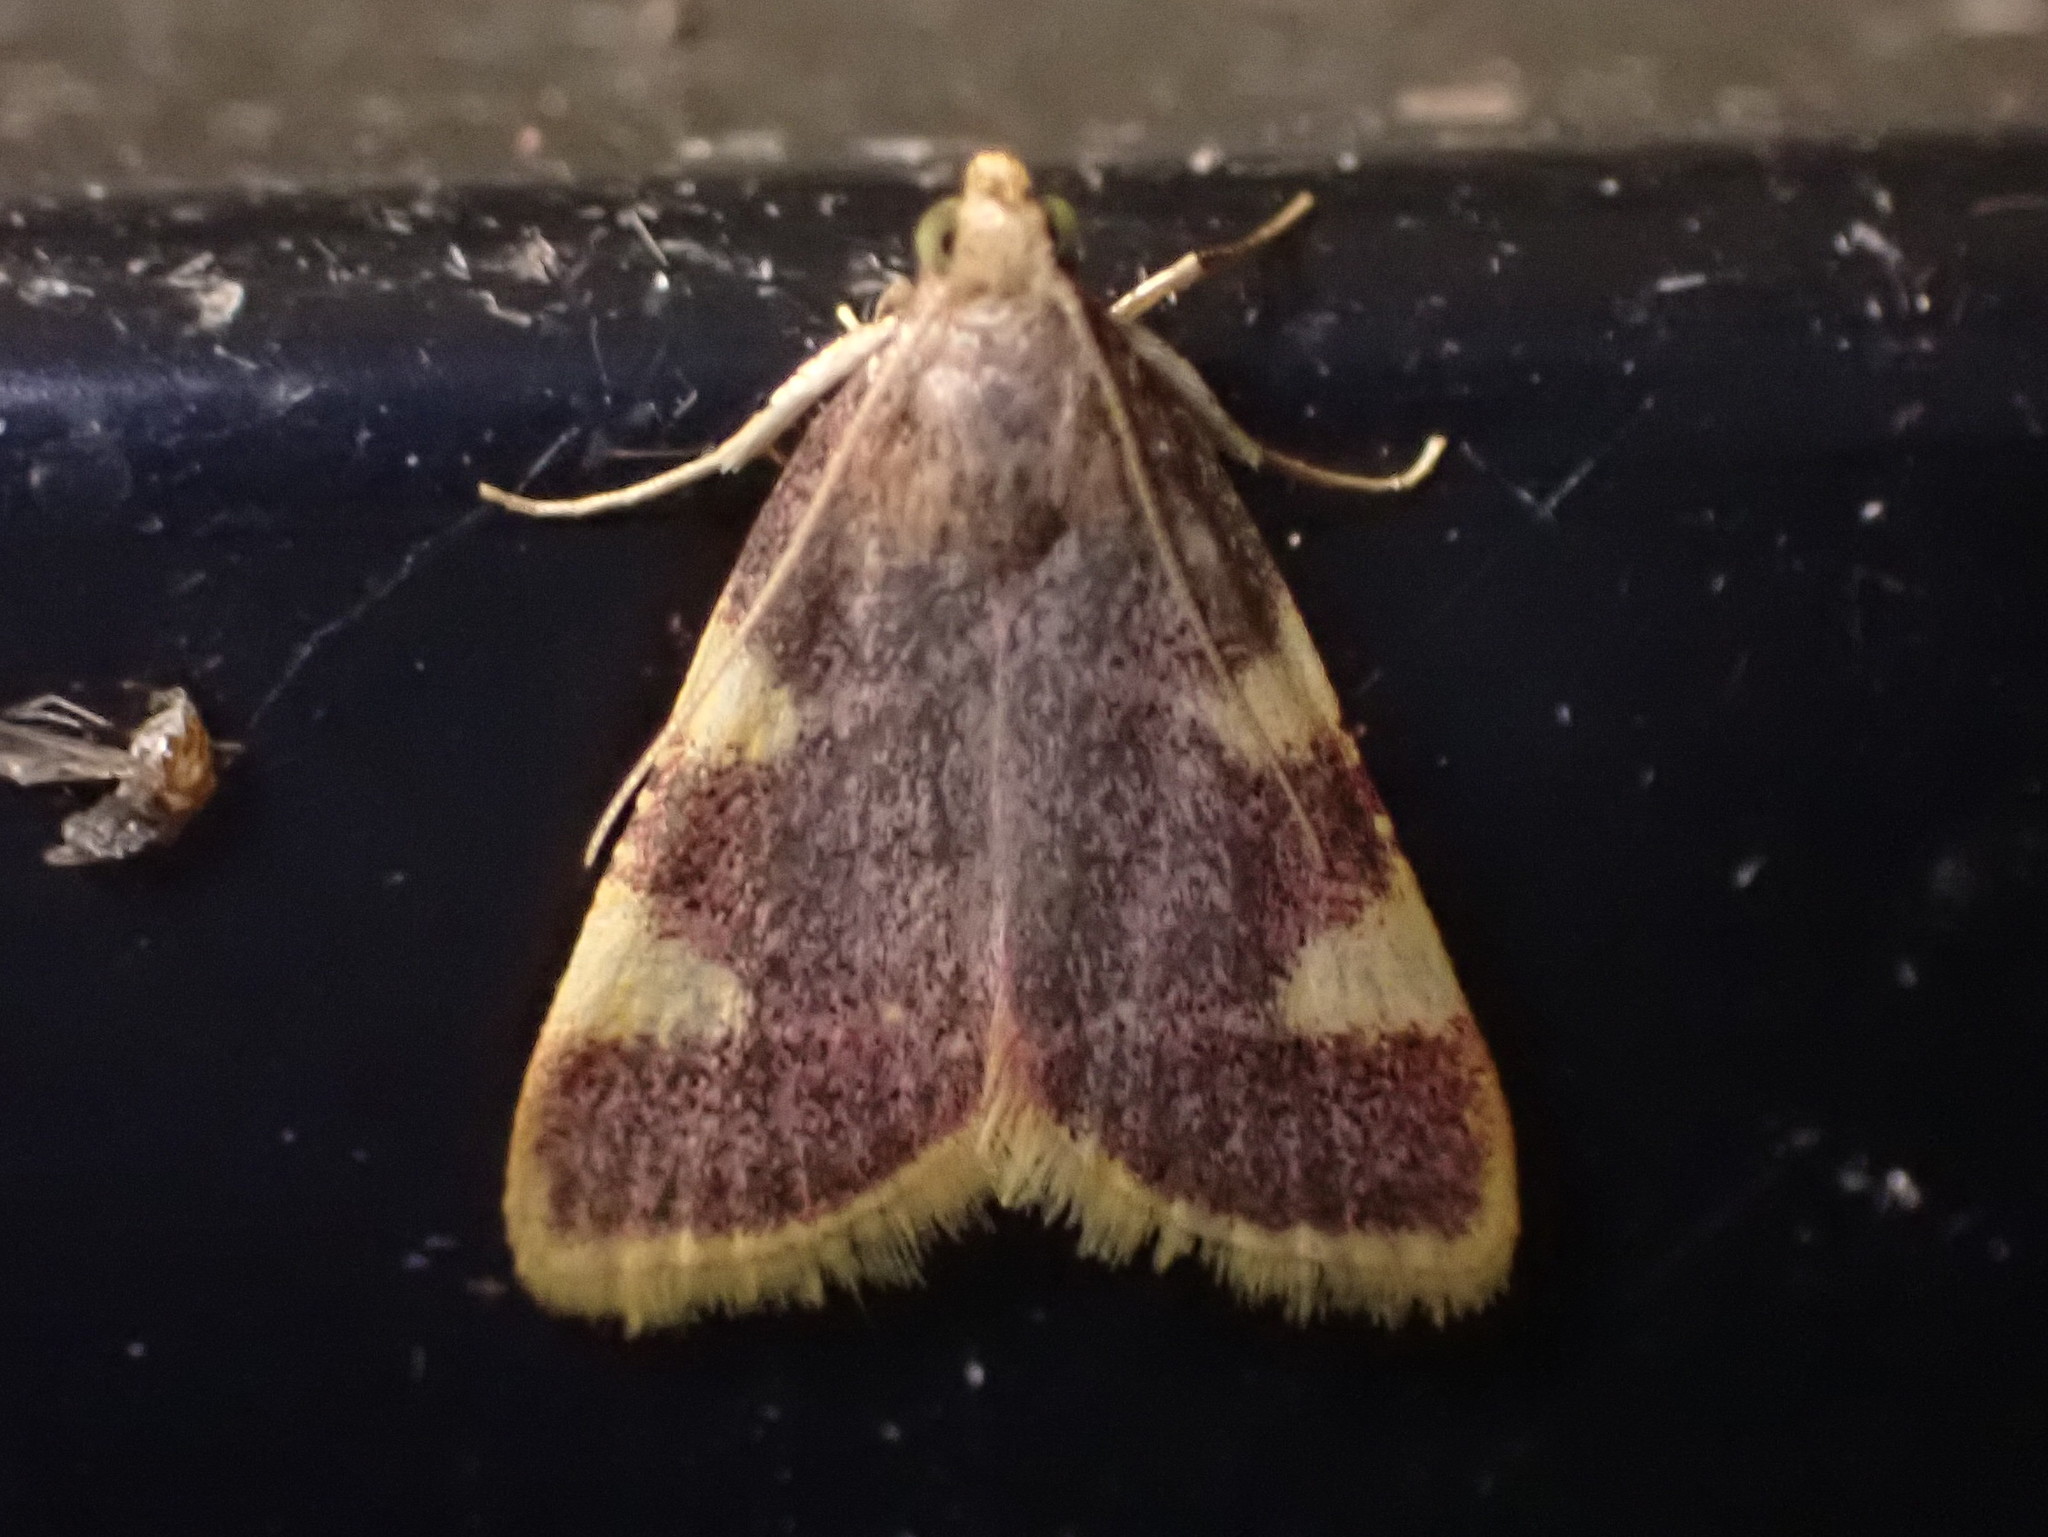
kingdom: Animalia
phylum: Arthropoda
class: Insecta
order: Lepidoptera
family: Pyralidae
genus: Hypsopygia
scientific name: Hypsopygia costalis
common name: Gold triangle
